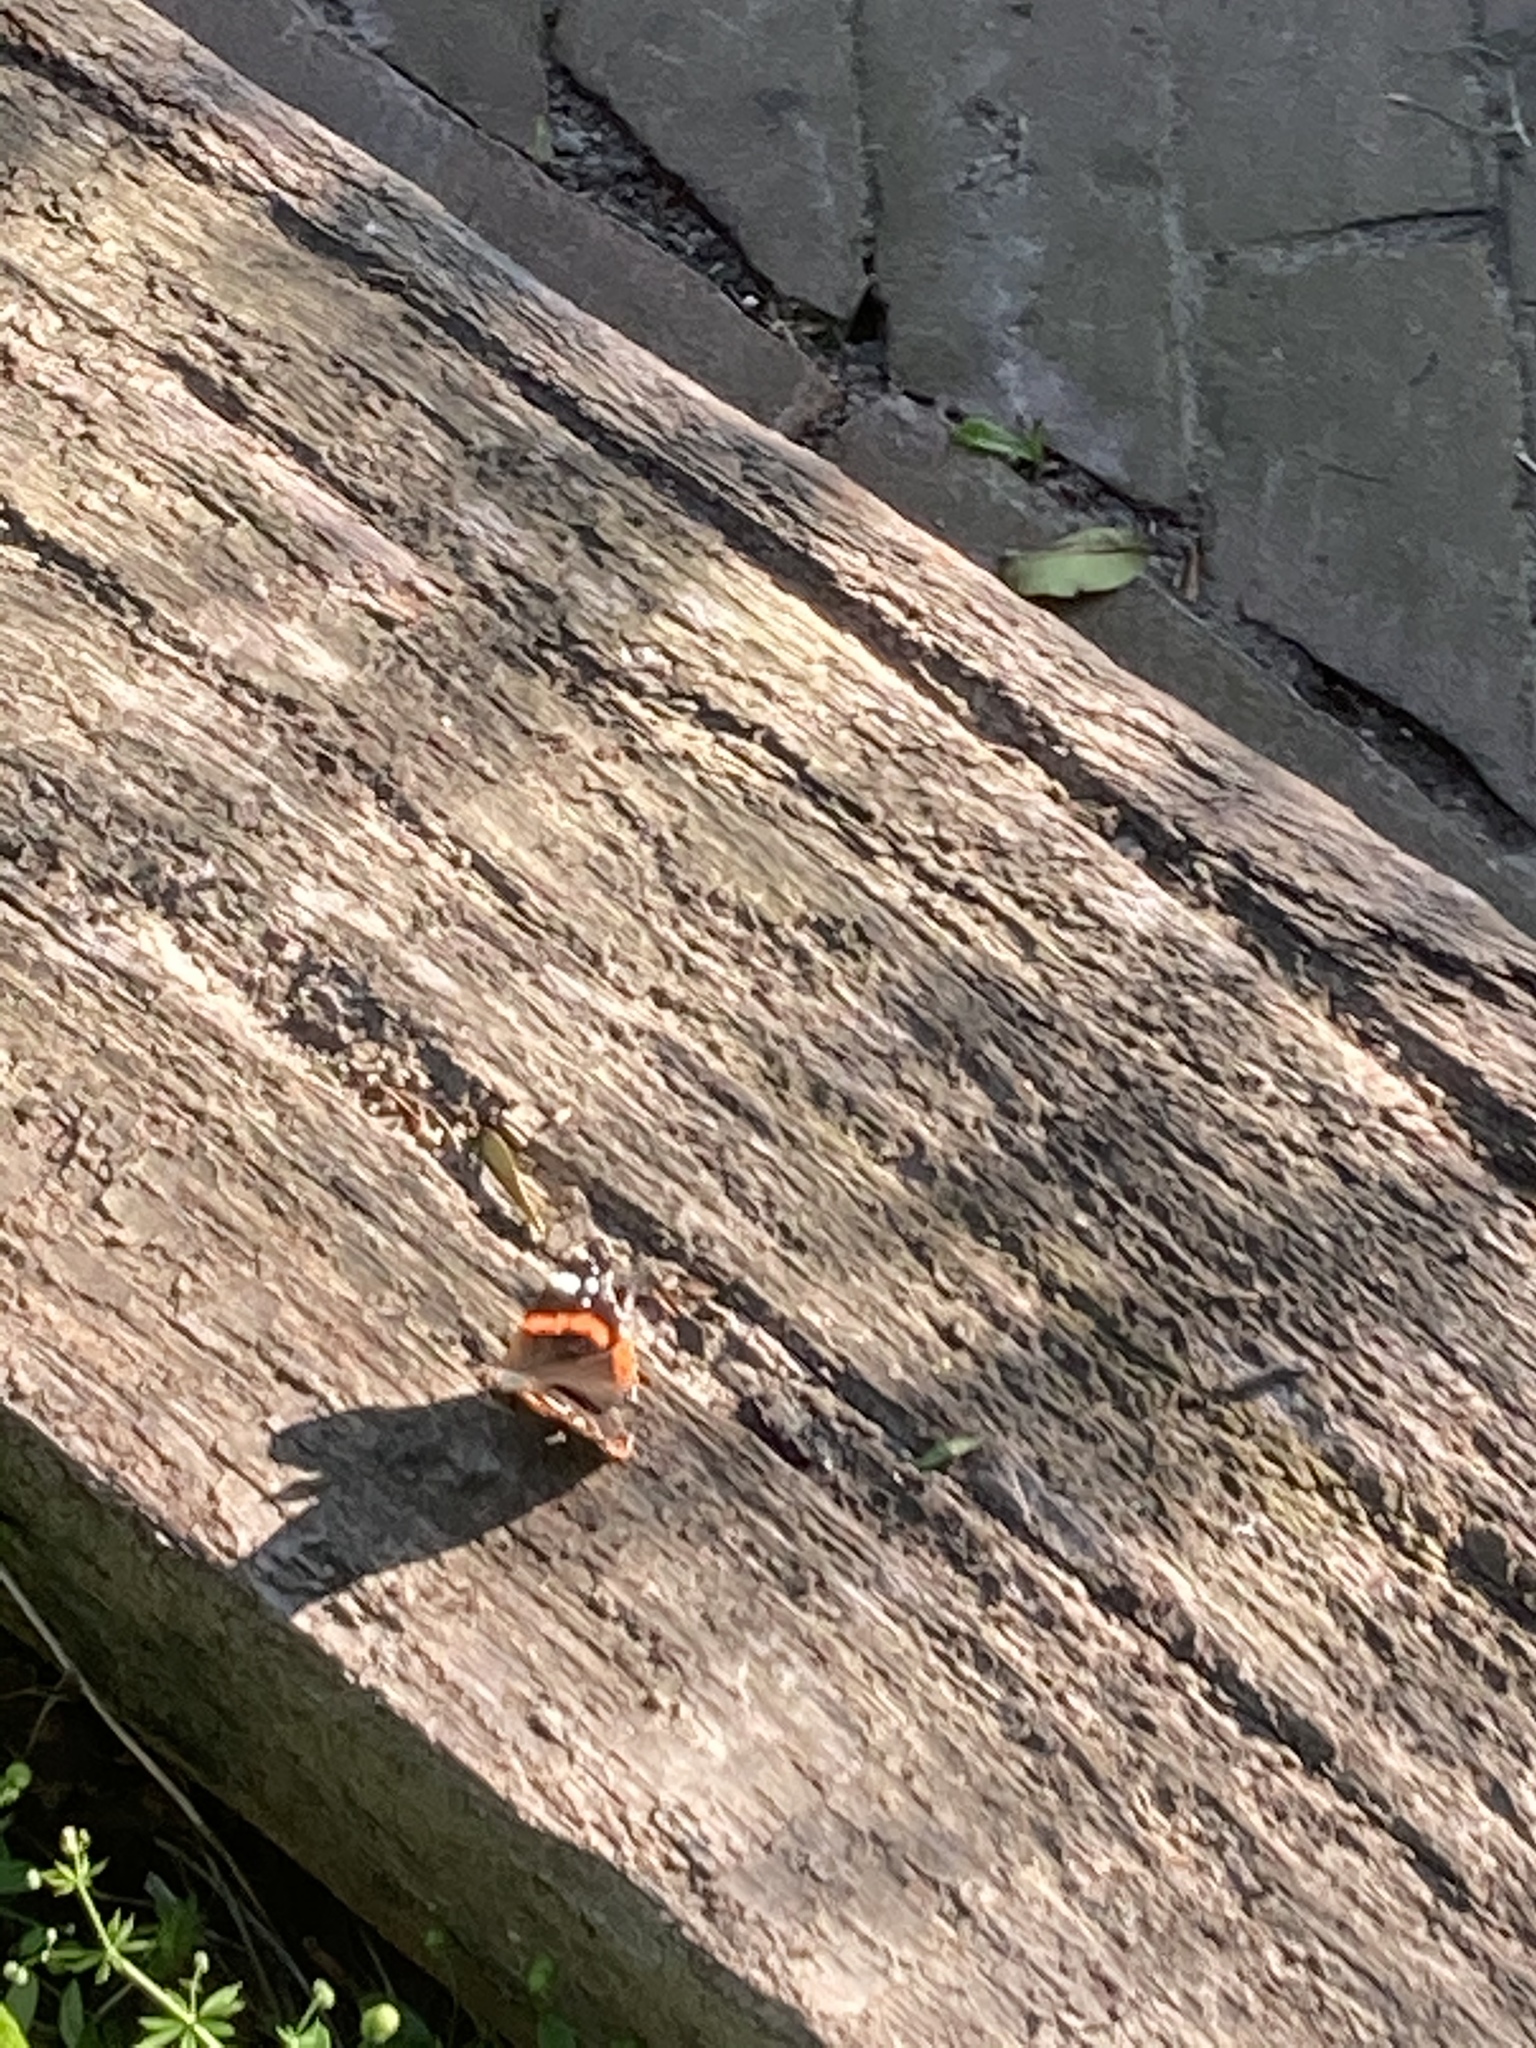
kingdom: Animalia
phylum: Arthropoda
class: Insecta
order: Lepidoptera
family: Nymphalidae
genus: Vanessa
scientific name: Vanessa atalanta
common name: Red admiral
